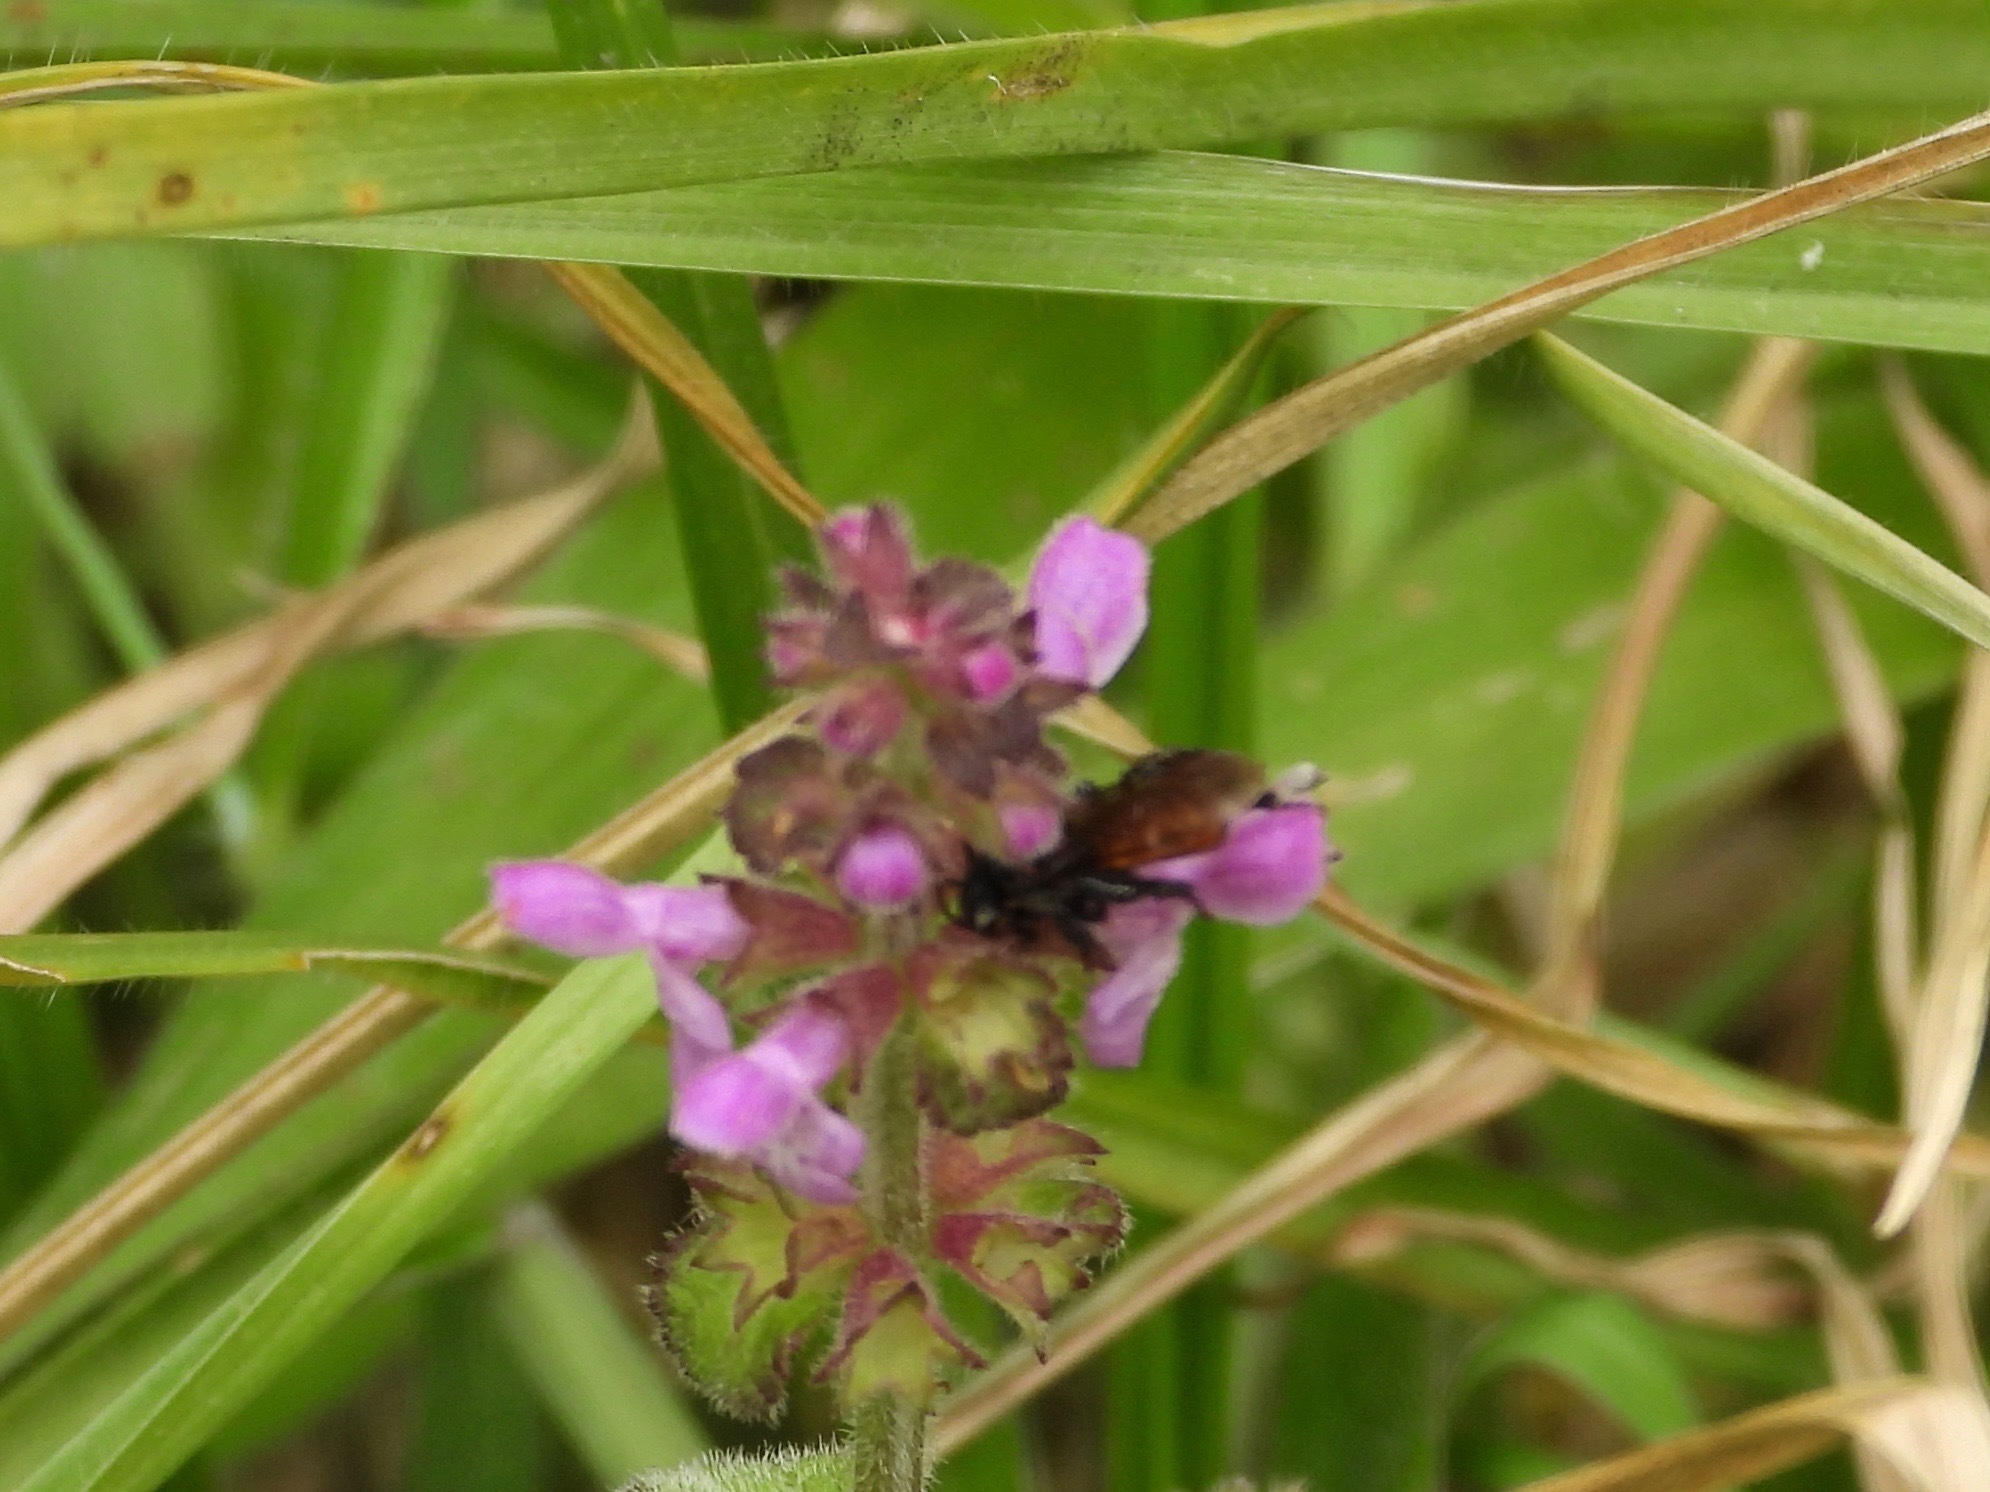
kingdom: Animalia
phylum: Arthropoda
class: Insecta
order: Hymenoptera
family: Apidae
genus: Trigona
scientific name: Trigona fulviventris
